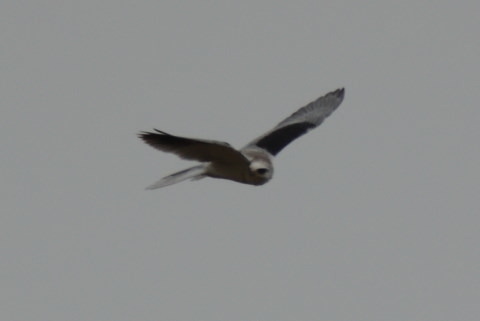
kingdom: Animalia
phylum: Chordata
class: Aves
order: Accipitriformes
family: Accipitridae
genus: Elanus
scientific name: Elanus leucurus
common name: White-tailed kite
